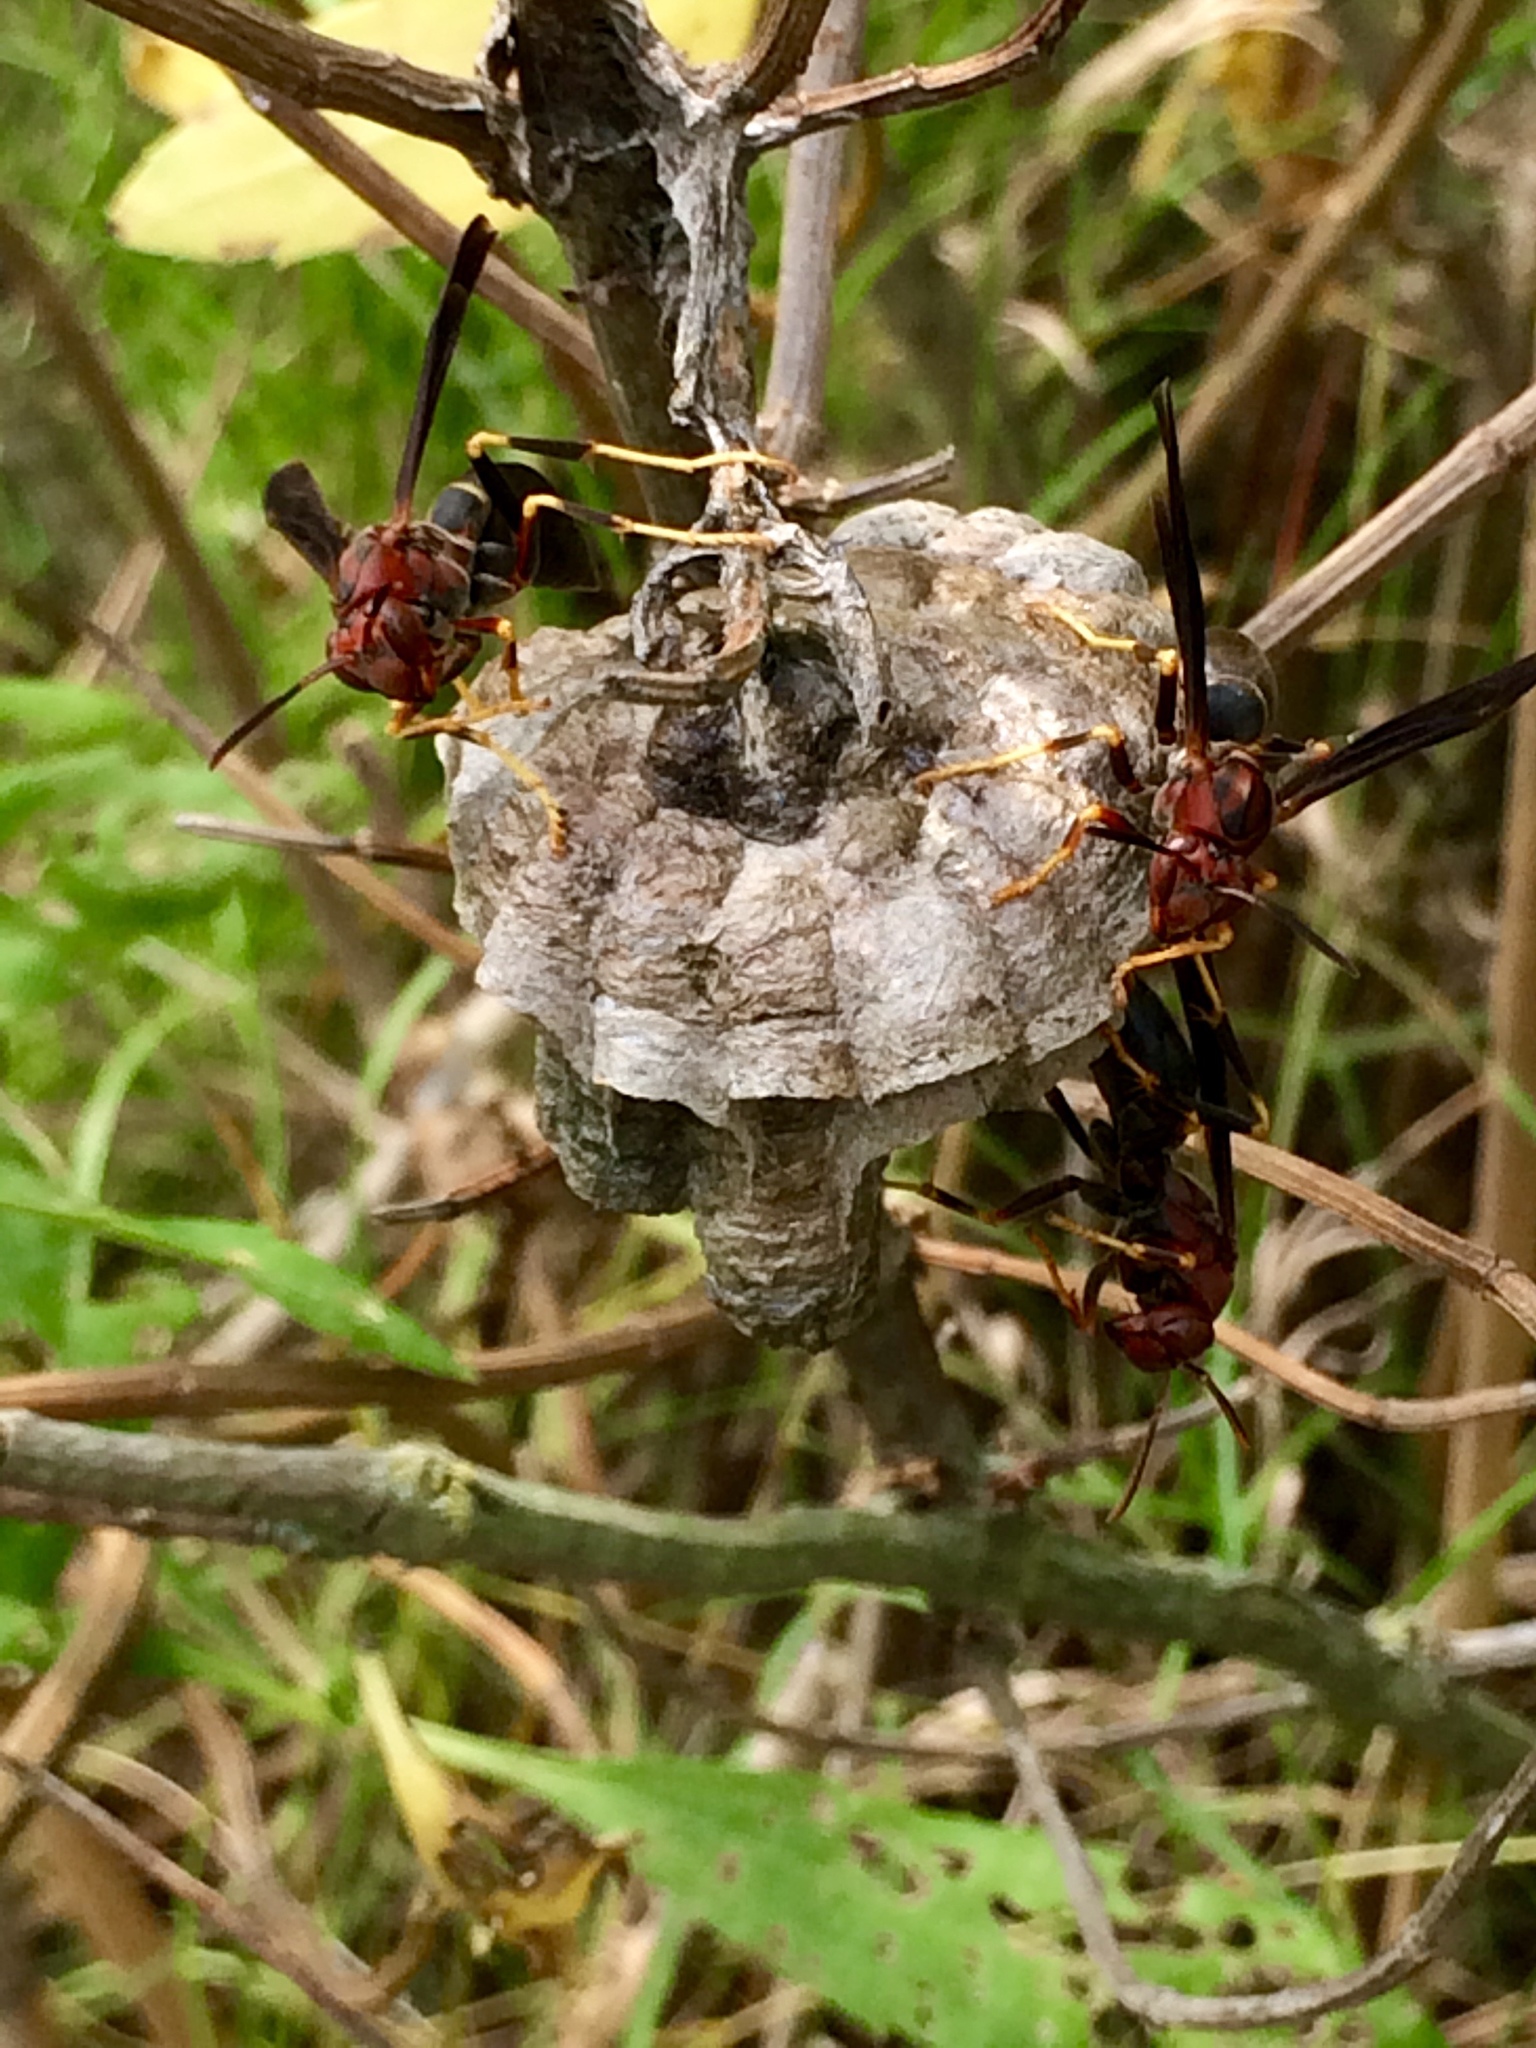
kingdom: Animalia
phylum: Arthropoda
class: Insecta
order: Hymenoptera
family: Eumenidae
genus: Polistes
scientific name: Polistes metricus
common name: Metric paper wasp
